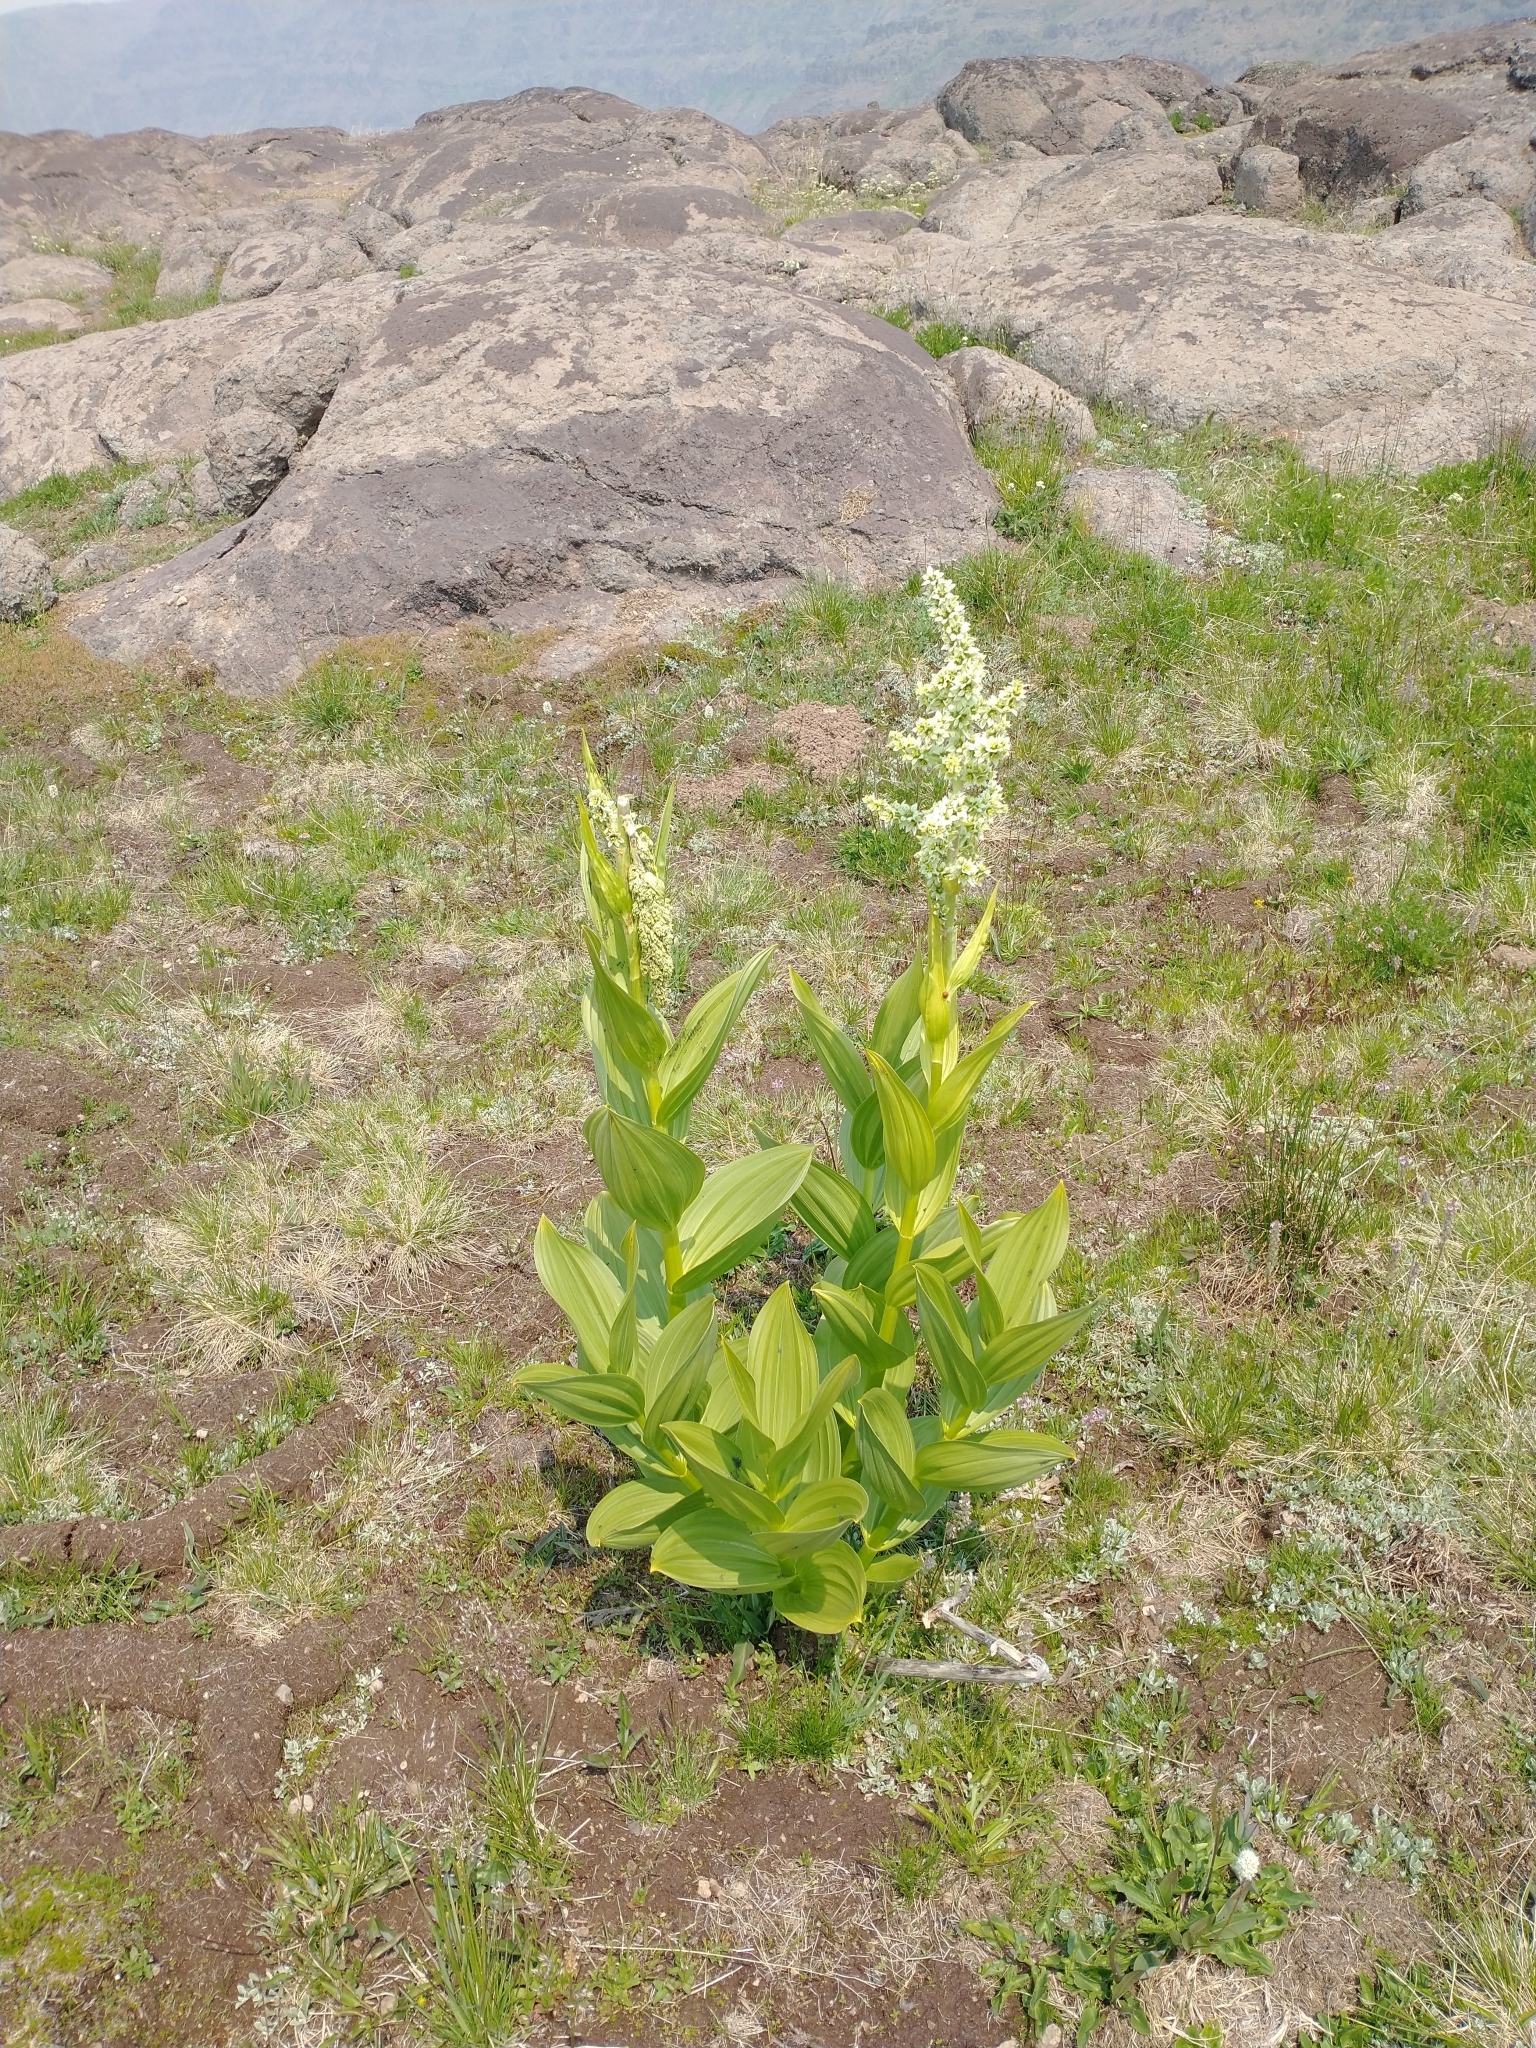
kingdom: Plantae
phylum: Tracheophyta
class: Liliopsida
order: Liliales
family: Melanthiaceae
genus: Veratrum
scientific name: Veratrum californicum
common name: California veratrum
